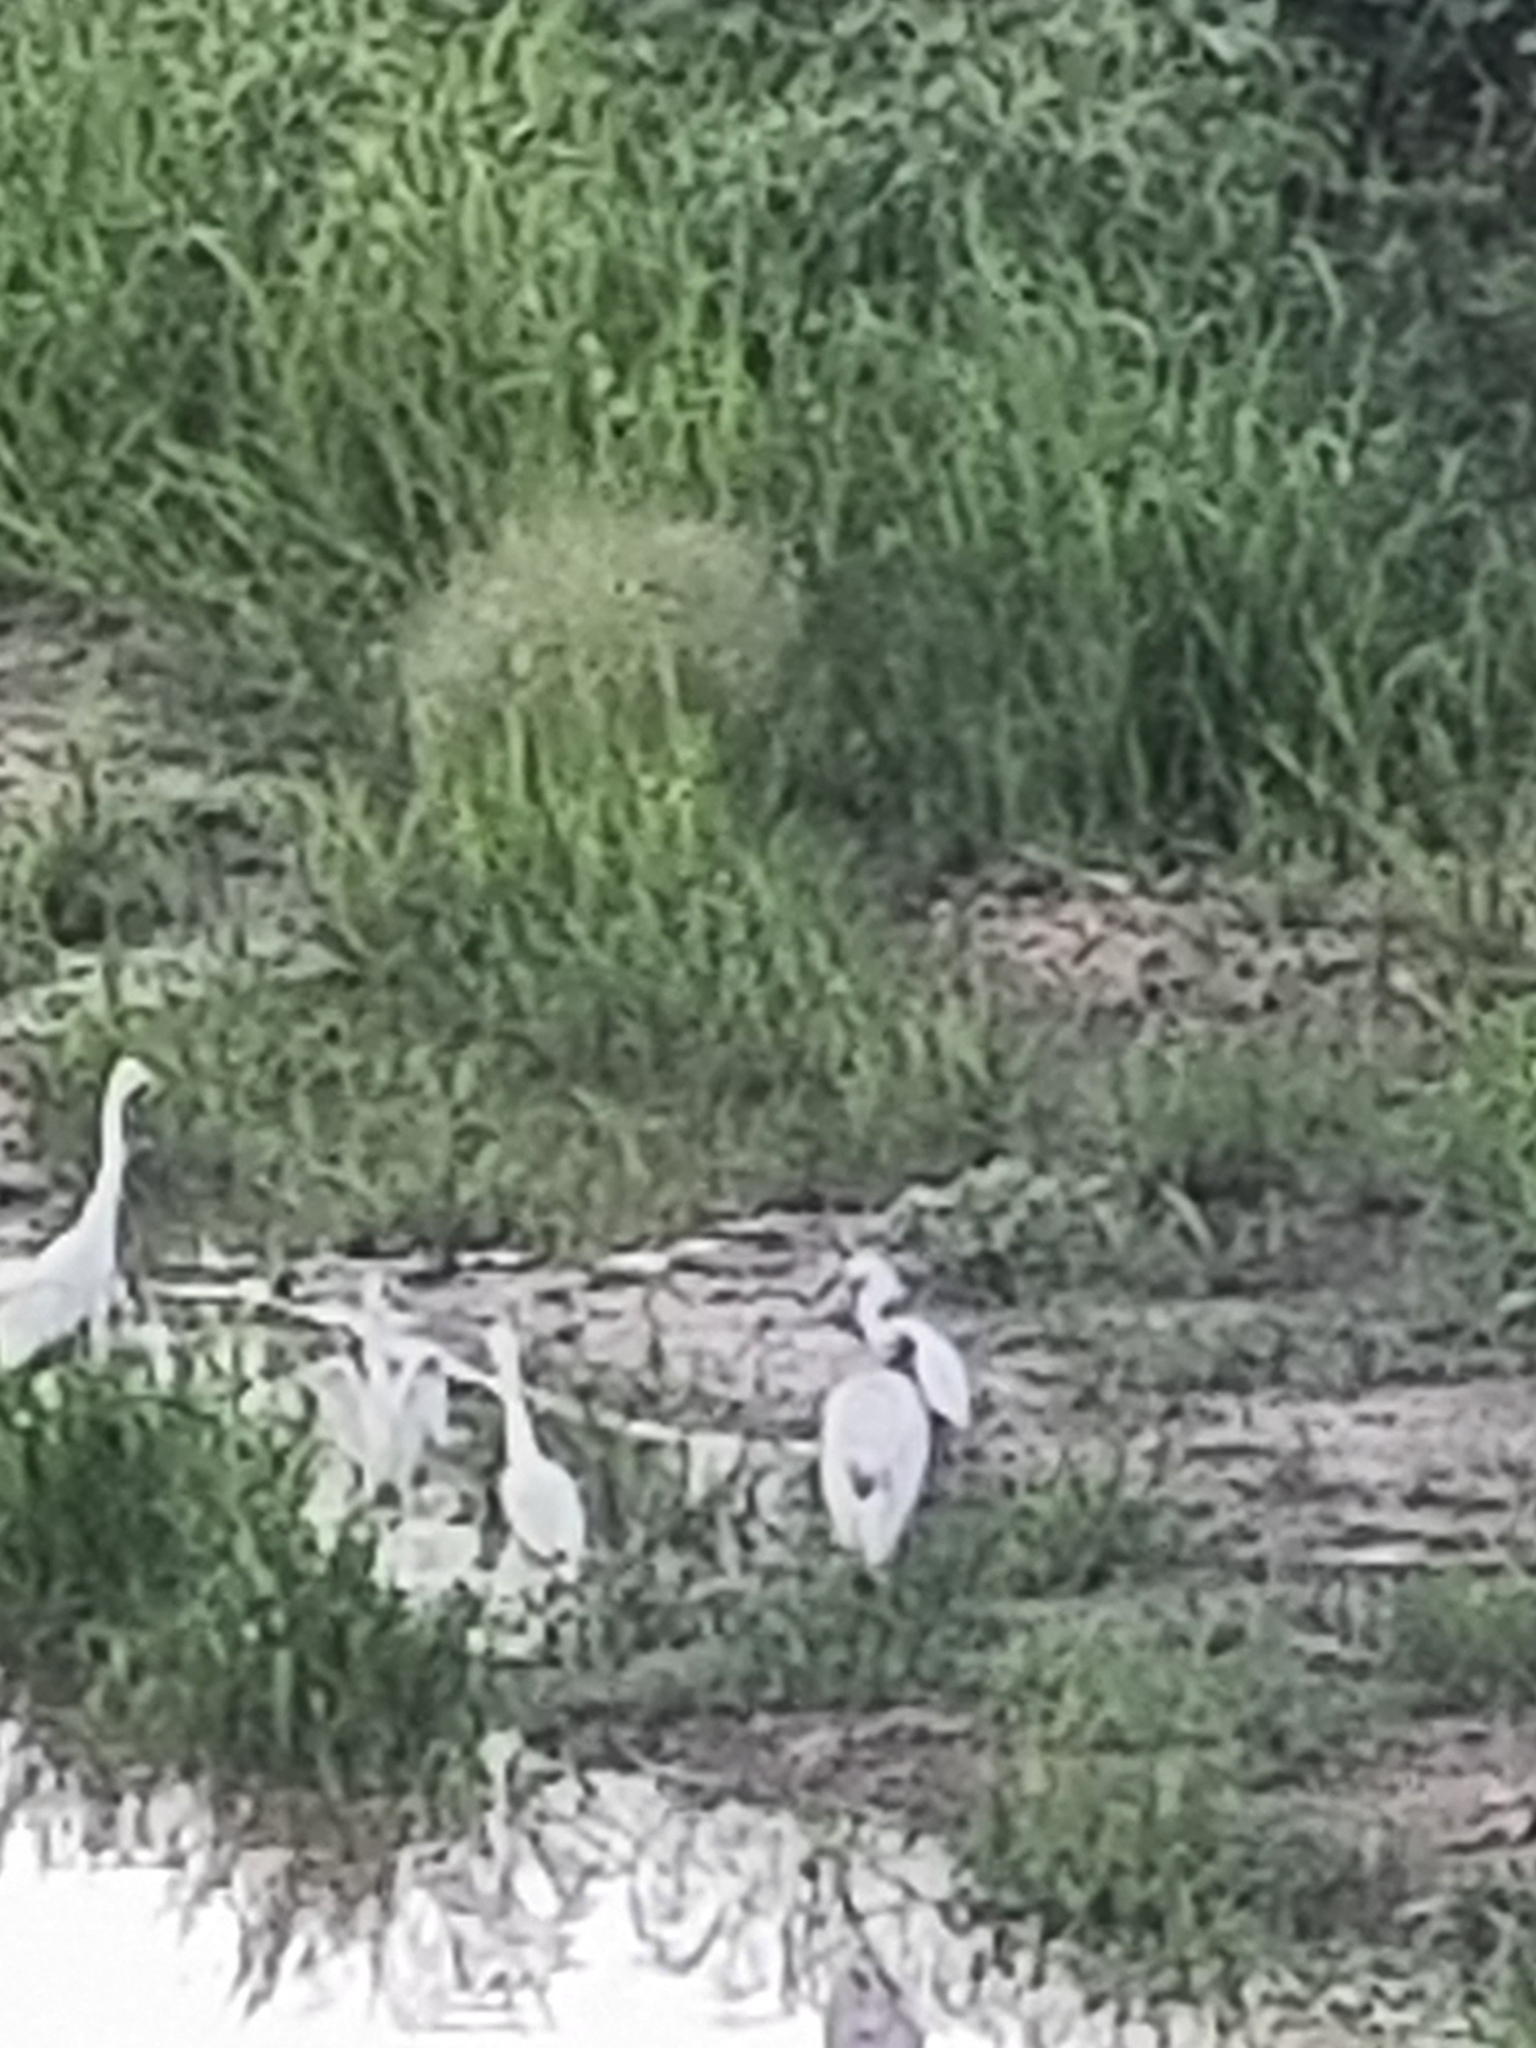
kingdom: Animalia
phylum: Chordata
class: Aves
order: Pelecaniformes
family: Ardeidae
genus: Ardea
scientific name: Ardea cocoi
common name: Cocoi heron
